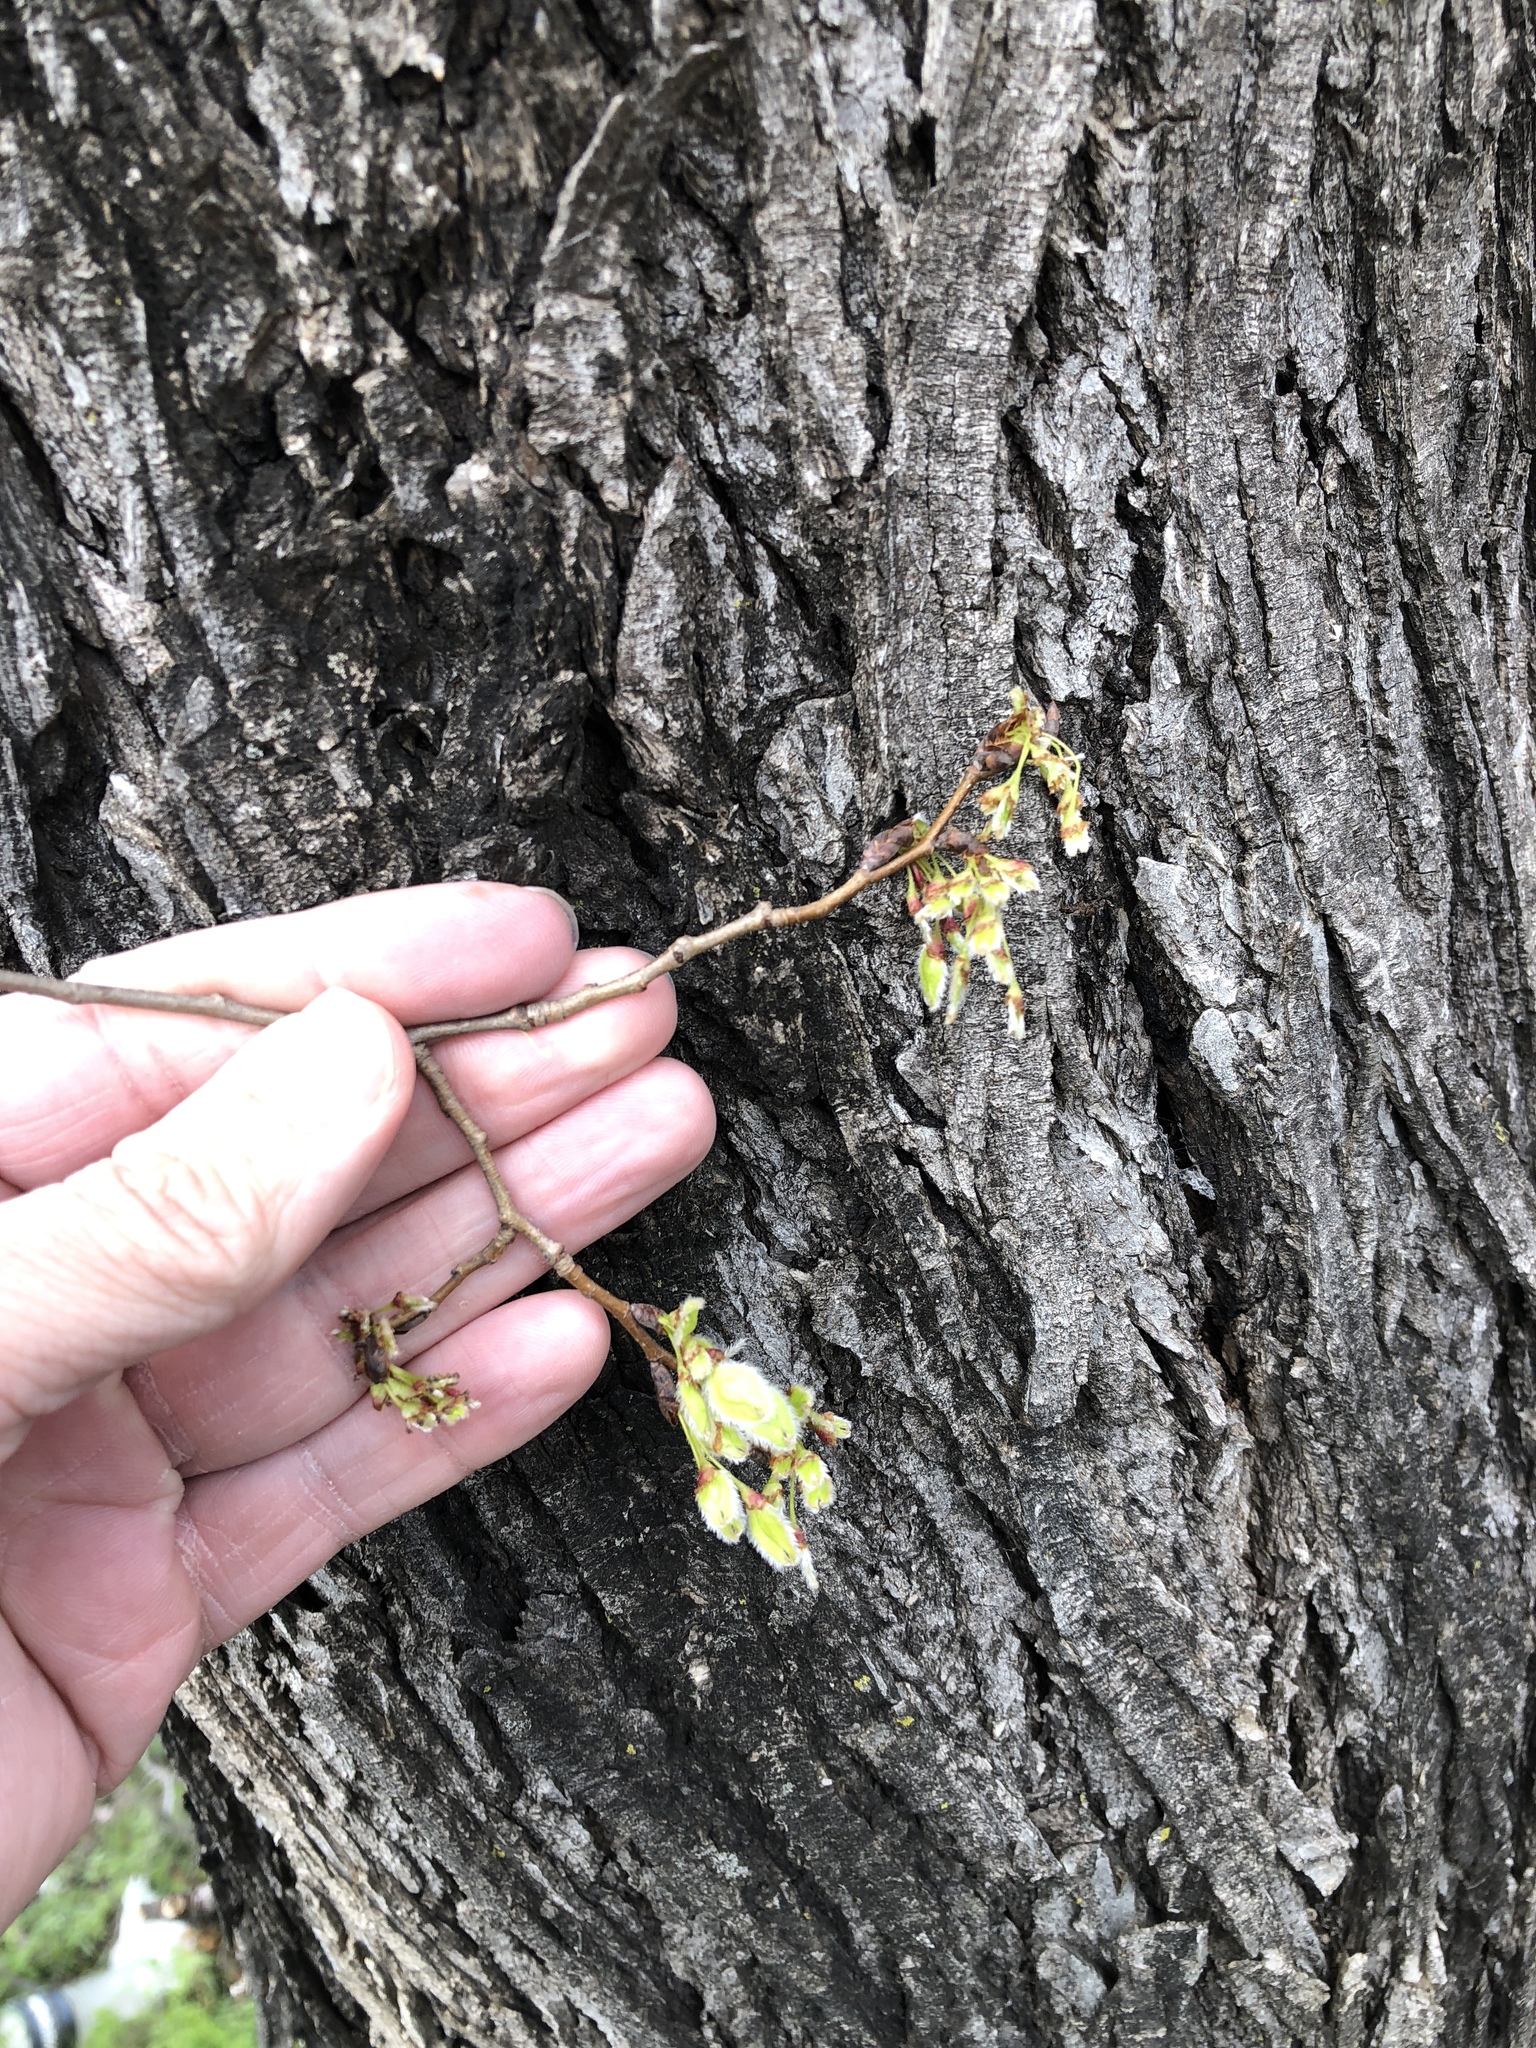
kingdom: Plantae
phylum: Tracheophyta
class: Magnoliopsida
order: Rosales
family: Ulmaceae
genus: Ulmus
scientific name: Ulmus americana
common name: American elm
